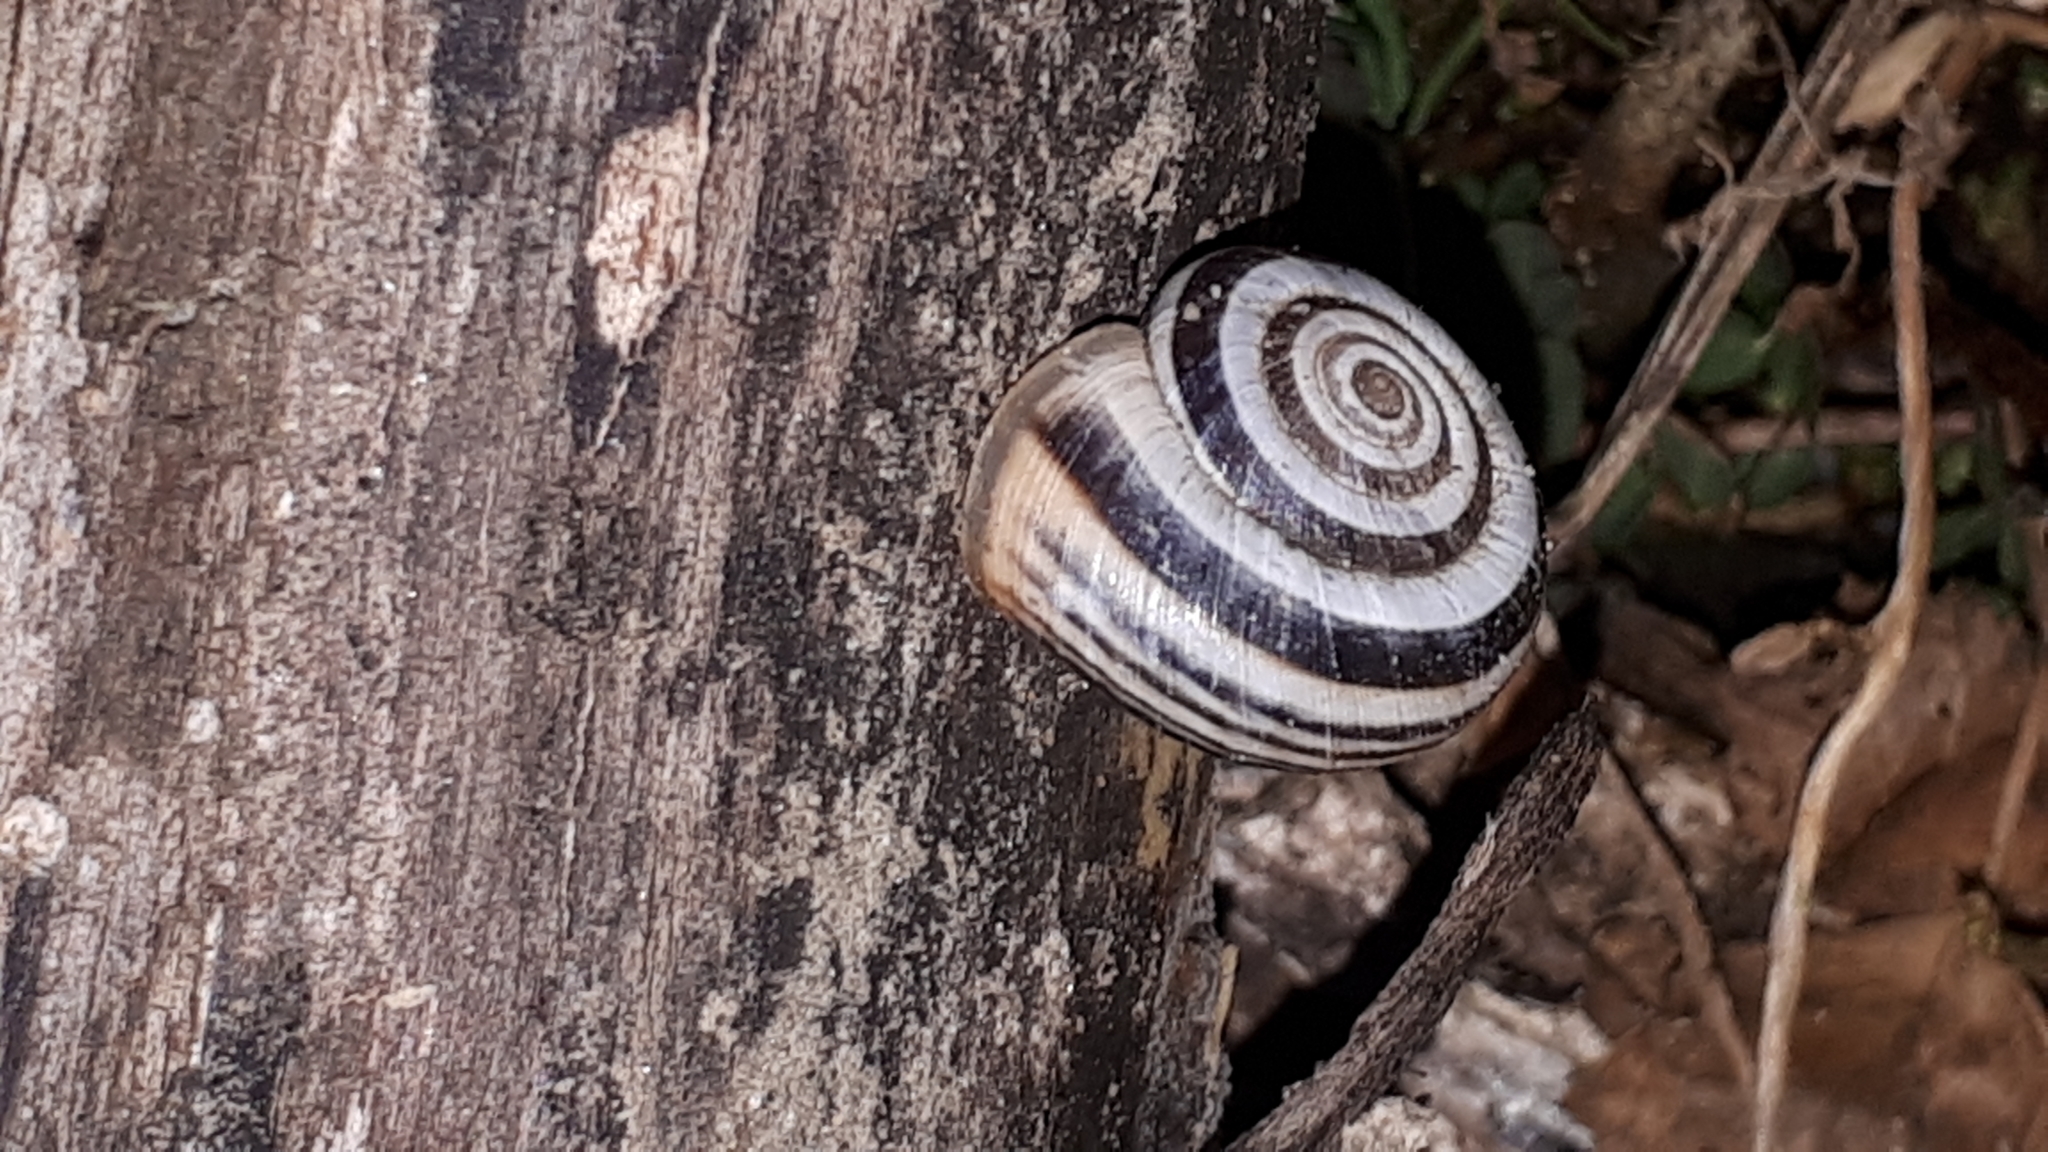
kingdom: Animalia
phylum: Mollusca
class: Gastropoda
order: Stylommatophora
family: Geomitridae
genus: Helicella
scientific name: Helicella itala
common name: Heath snail
